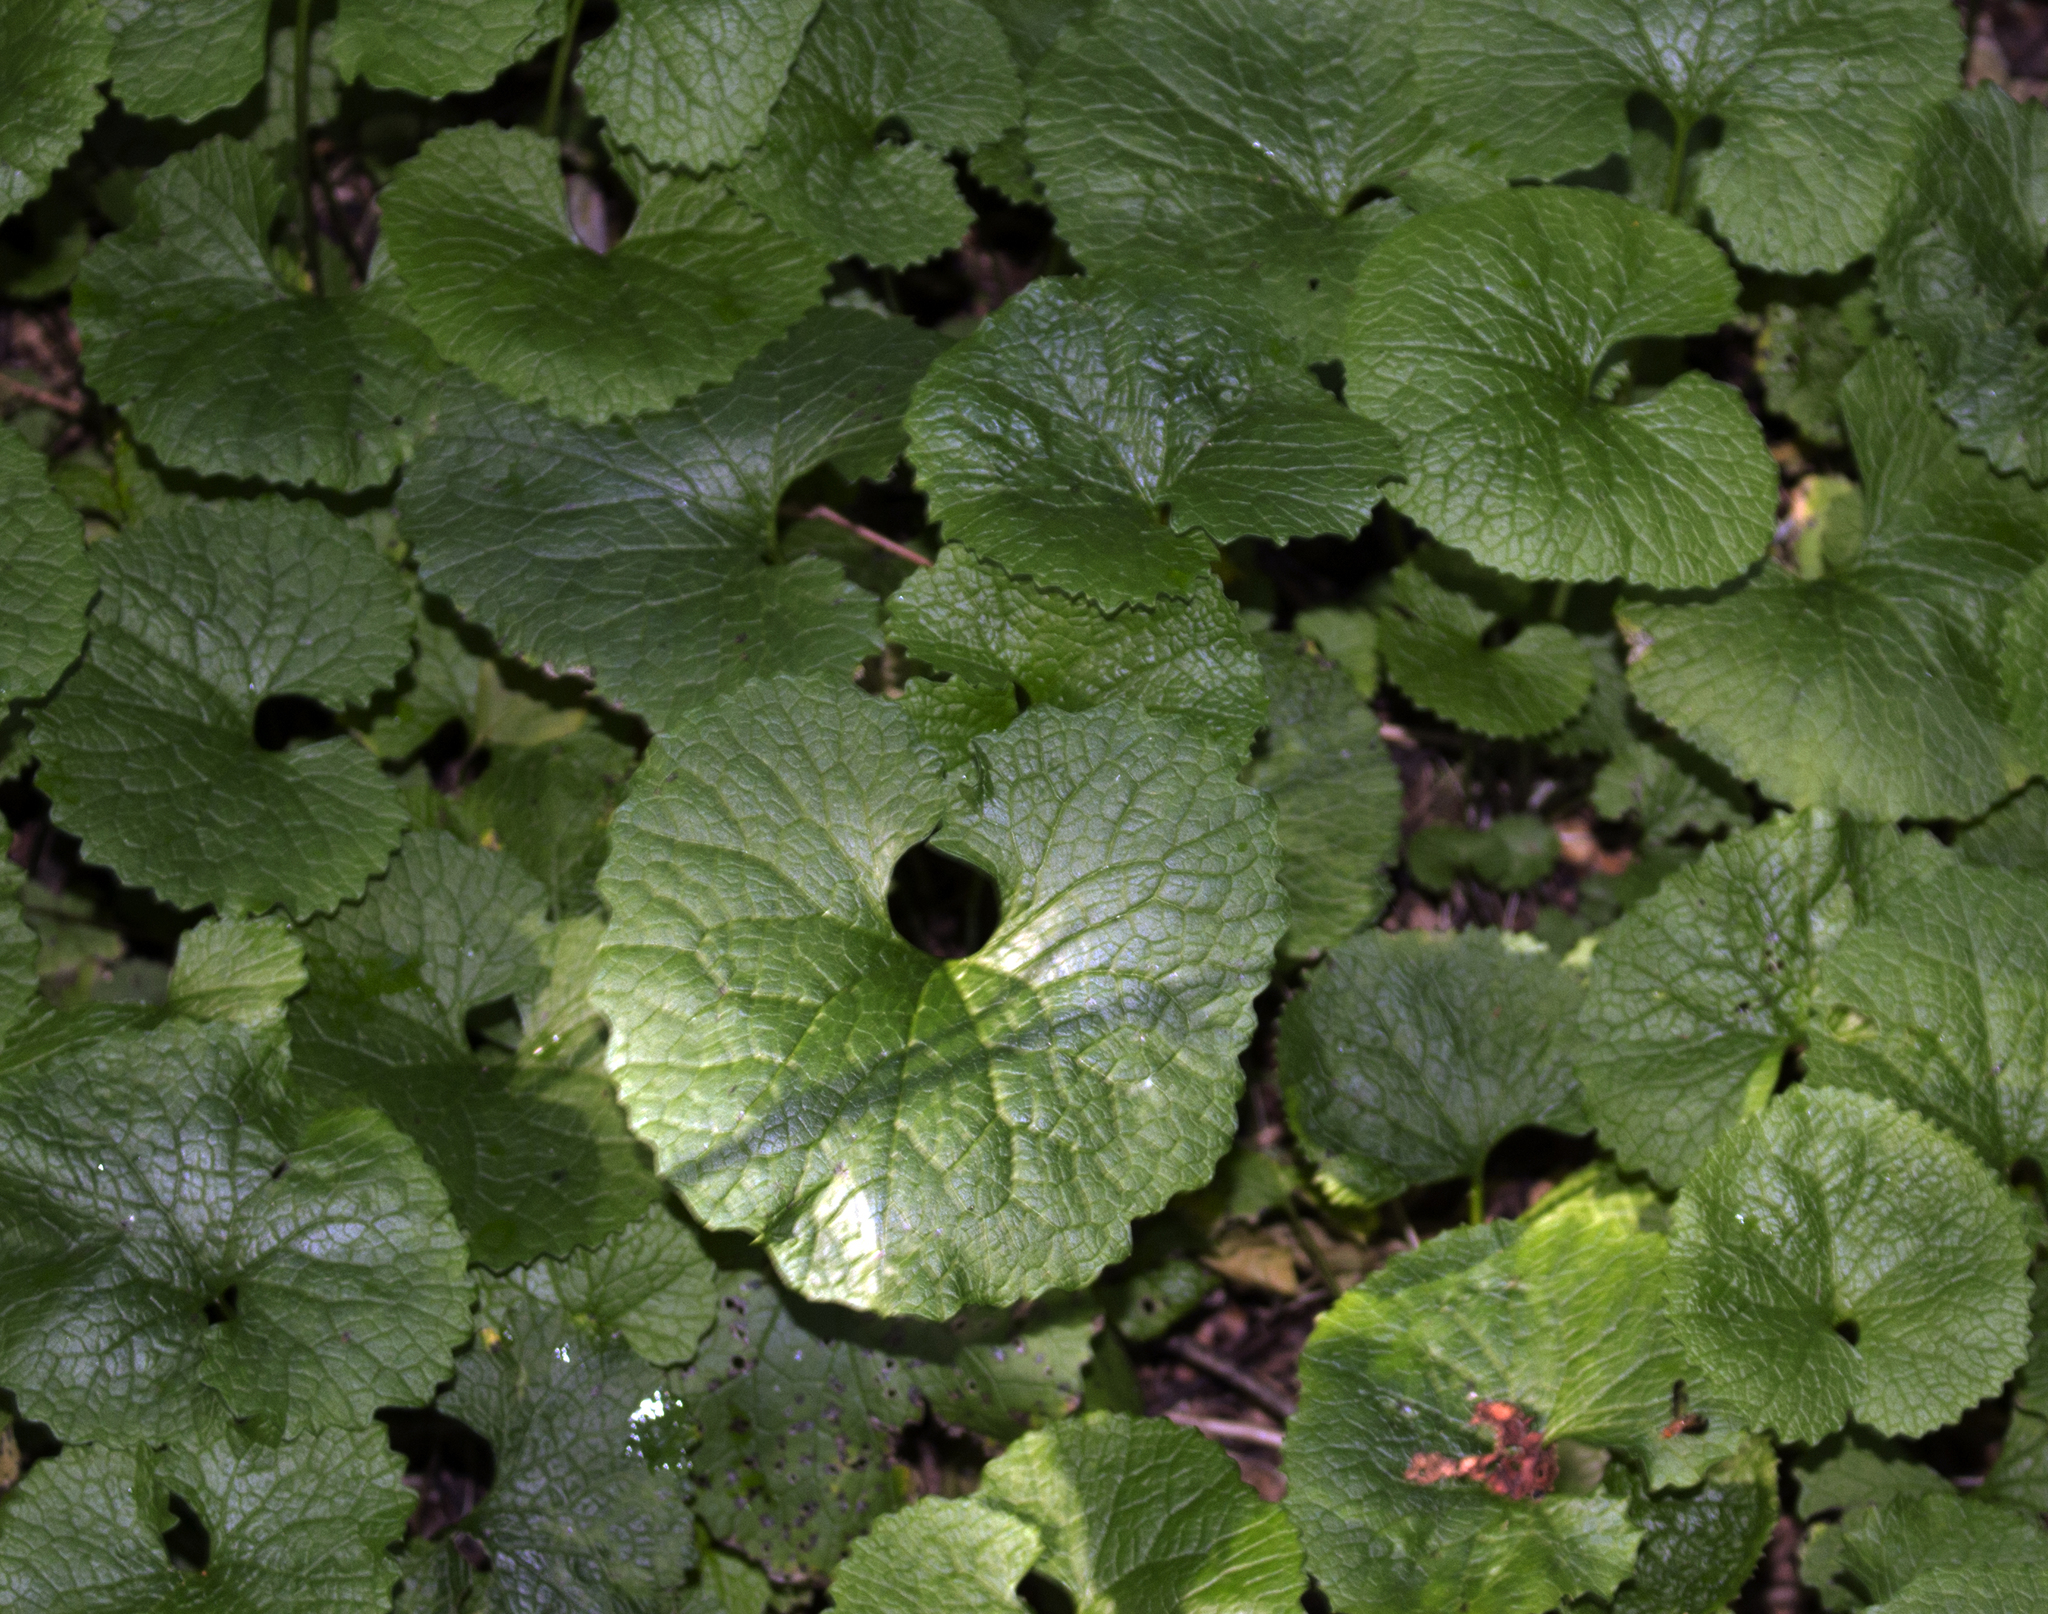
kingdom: Plantae
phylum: Tracheophyta
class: Magnoliopsida
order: Brassicales
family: Brassicaceae
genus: Alliaria
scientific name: Alliaria petiolata
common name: Garlic mustard
